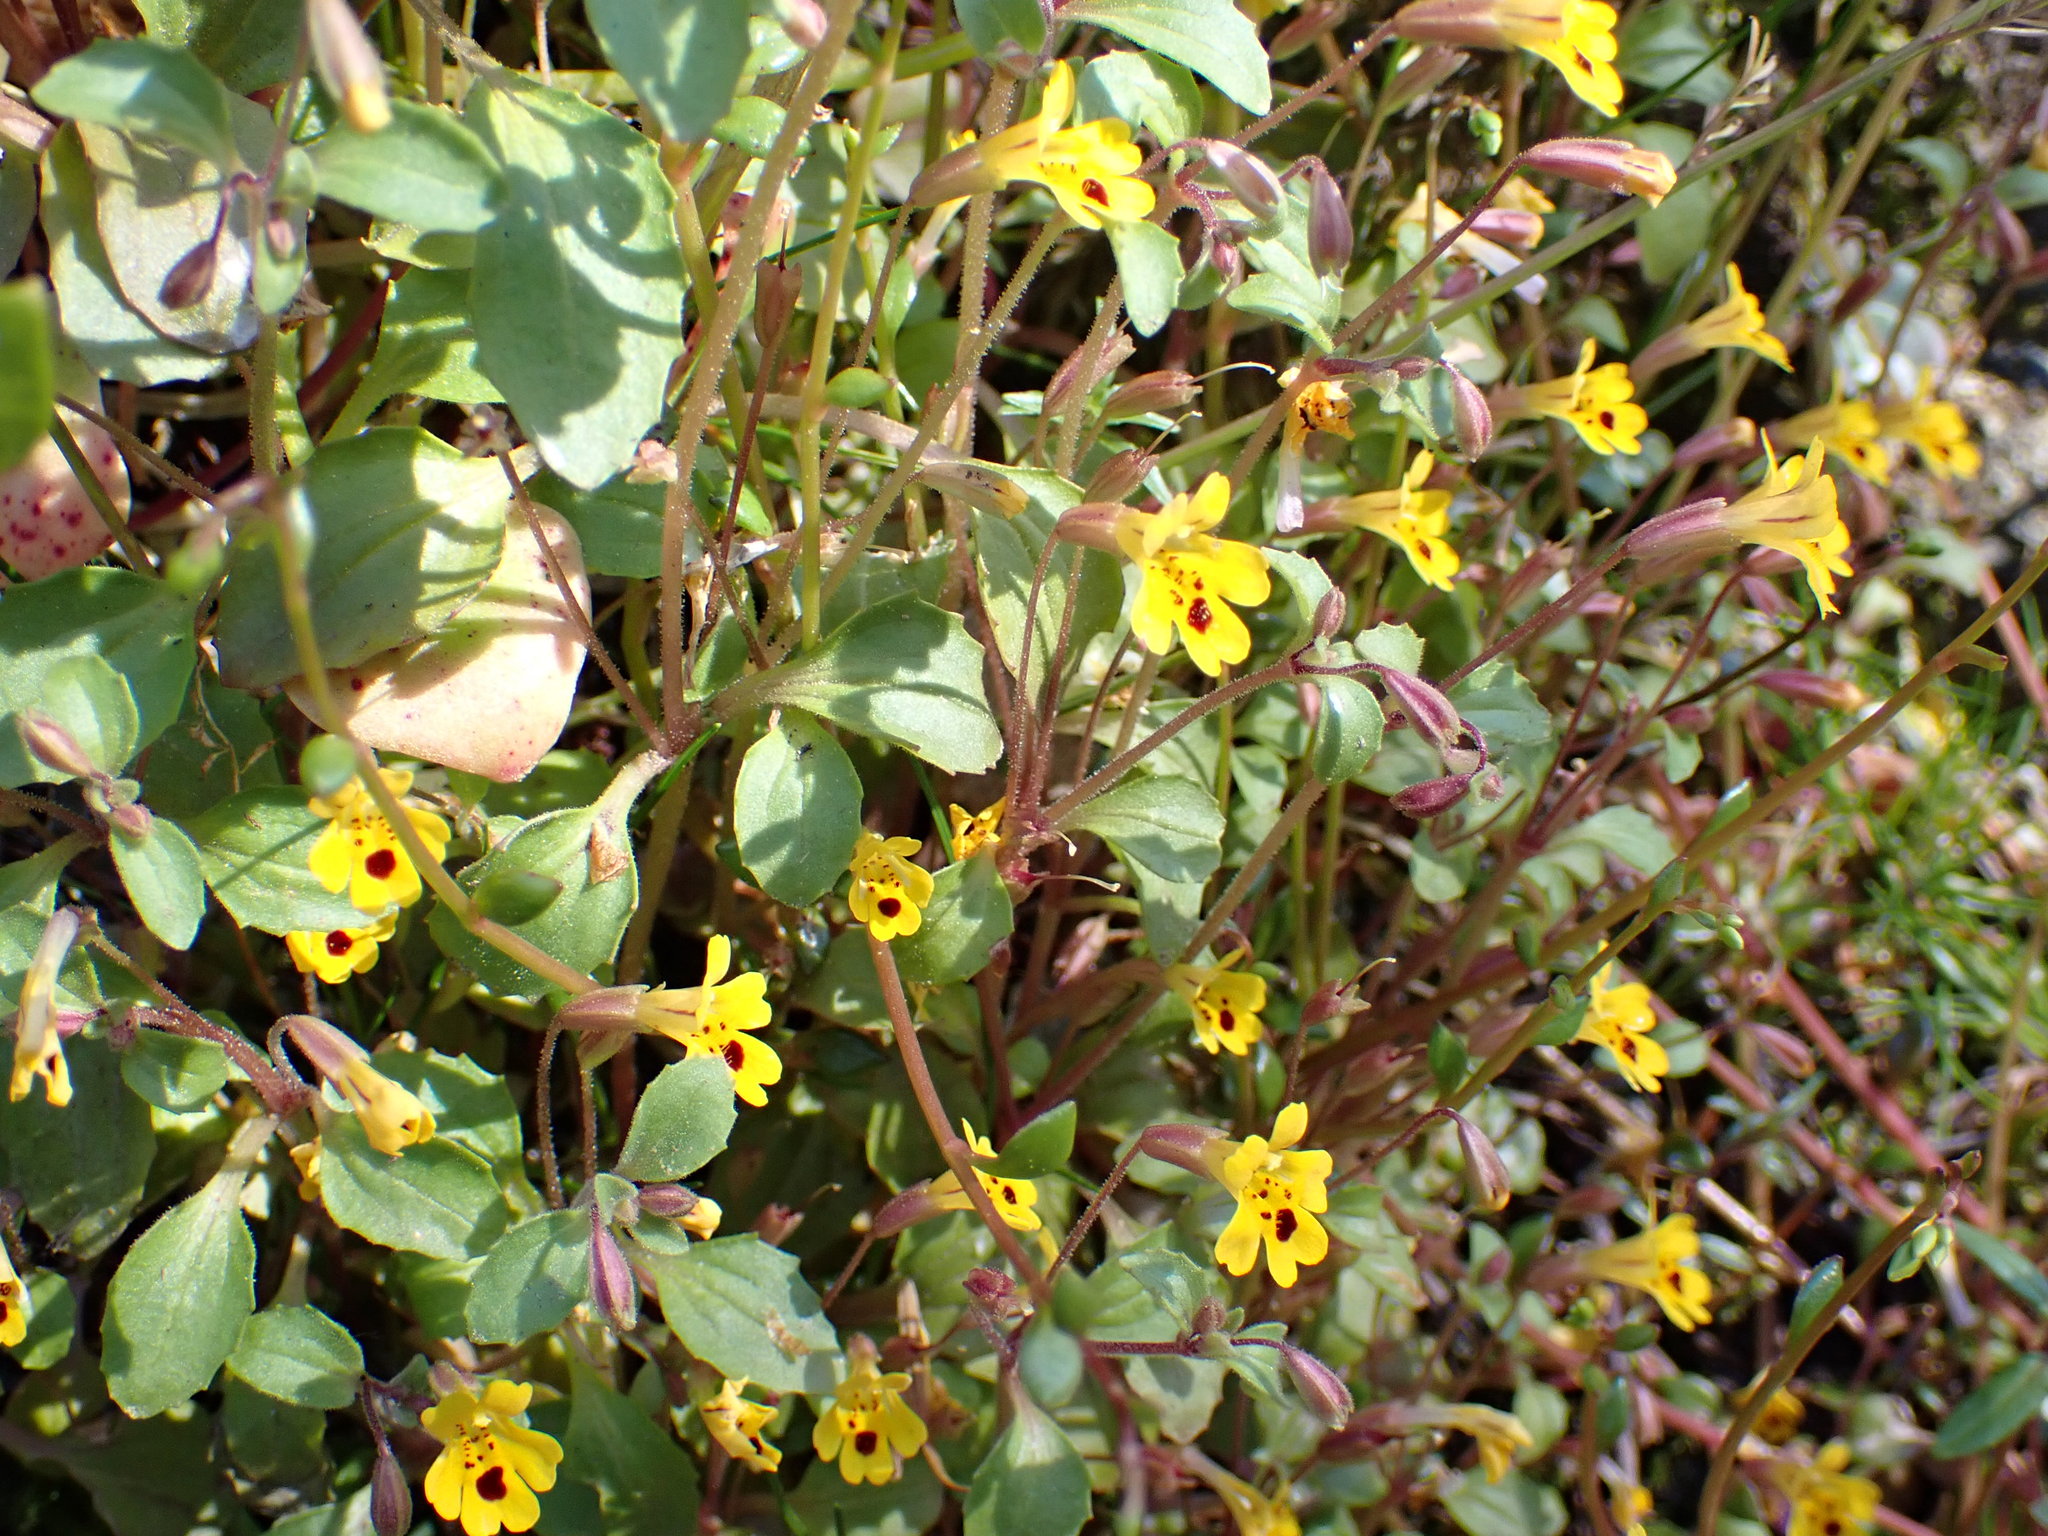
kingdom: Plantae
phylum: Tracheophyta
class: Magnoliopsida
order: Lamiales
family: Phrymaceae
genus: Erythranthe
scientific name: Erythranthe alsinoides
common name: Chickweed monkeyflower
